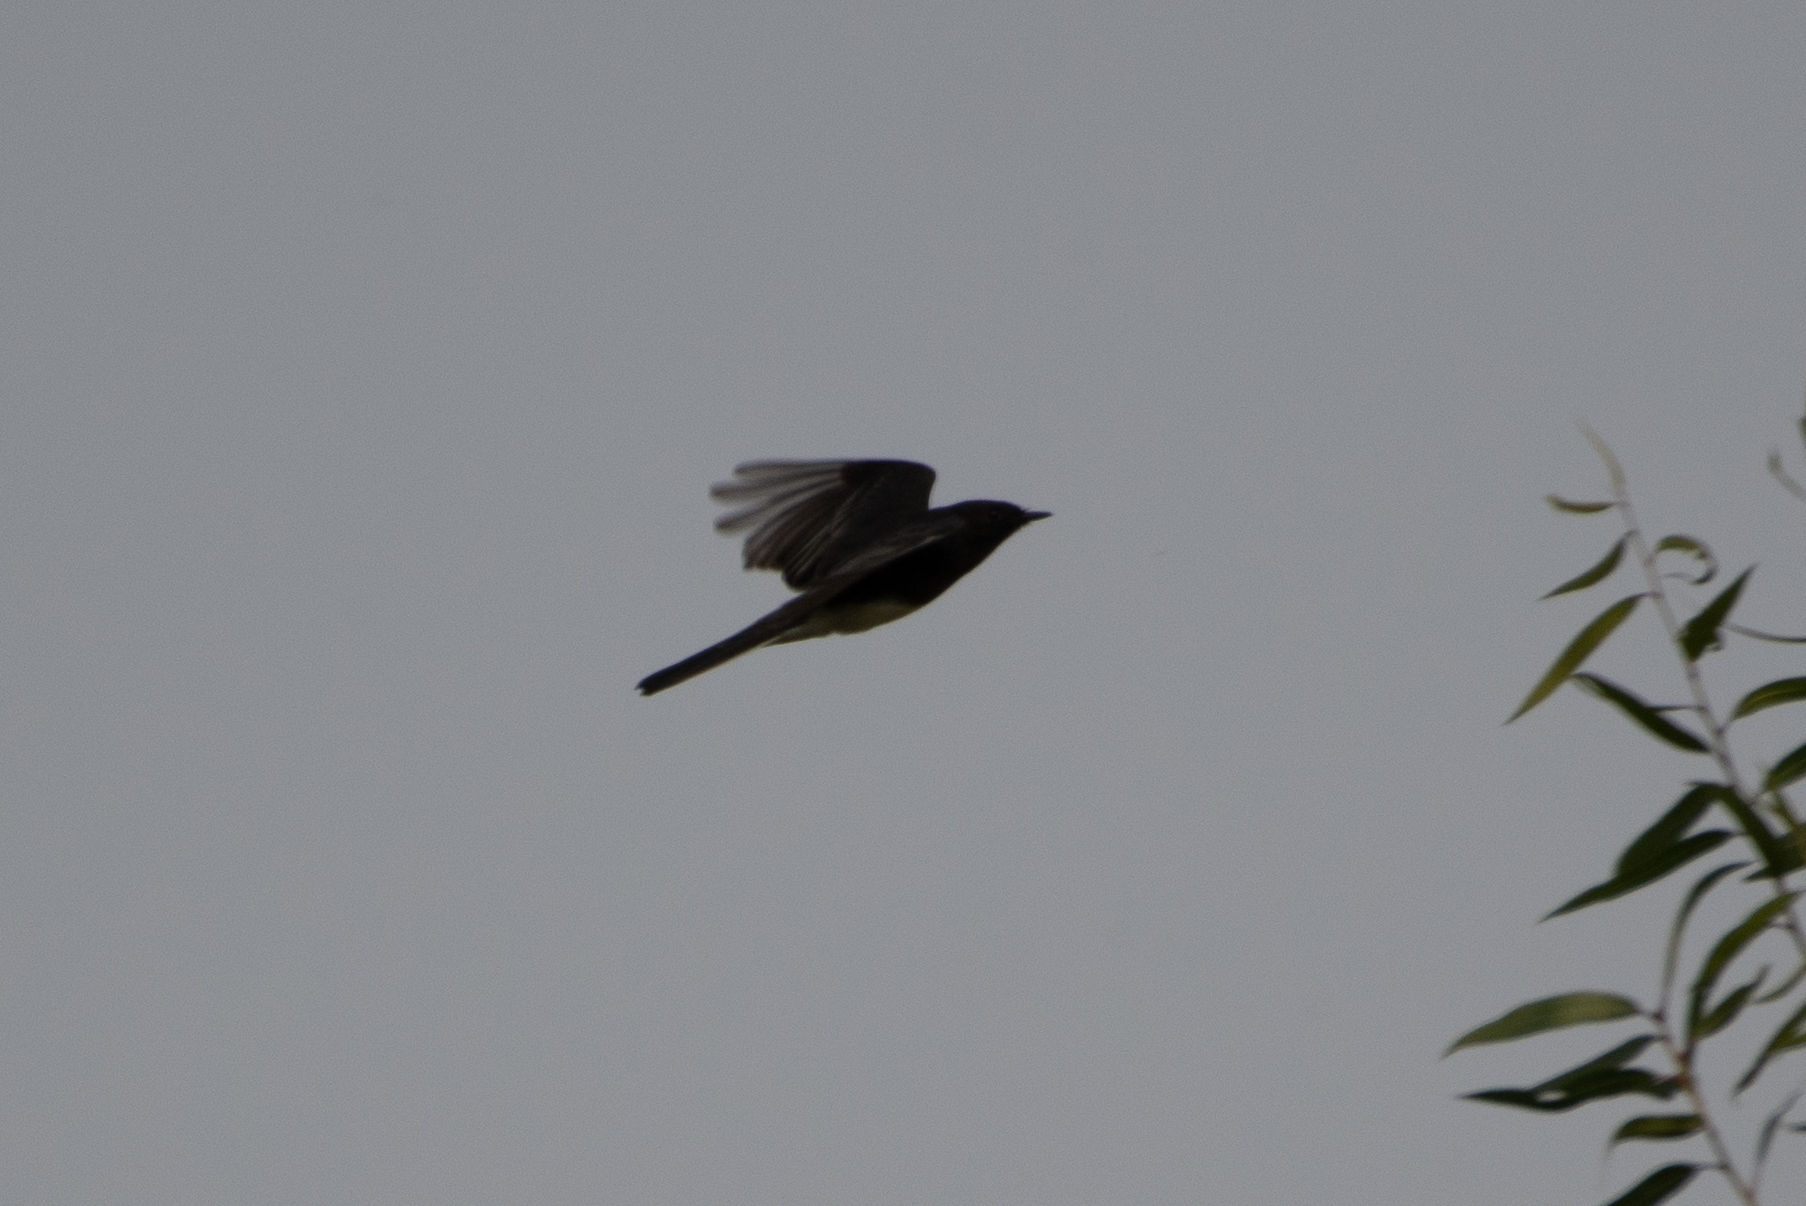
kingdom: Animalia
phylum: Chordata
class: Aves
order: Passeriformes
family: Tyrannidae
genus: Sayornis
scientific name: Sayornis nigricans
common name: Black phoebe
